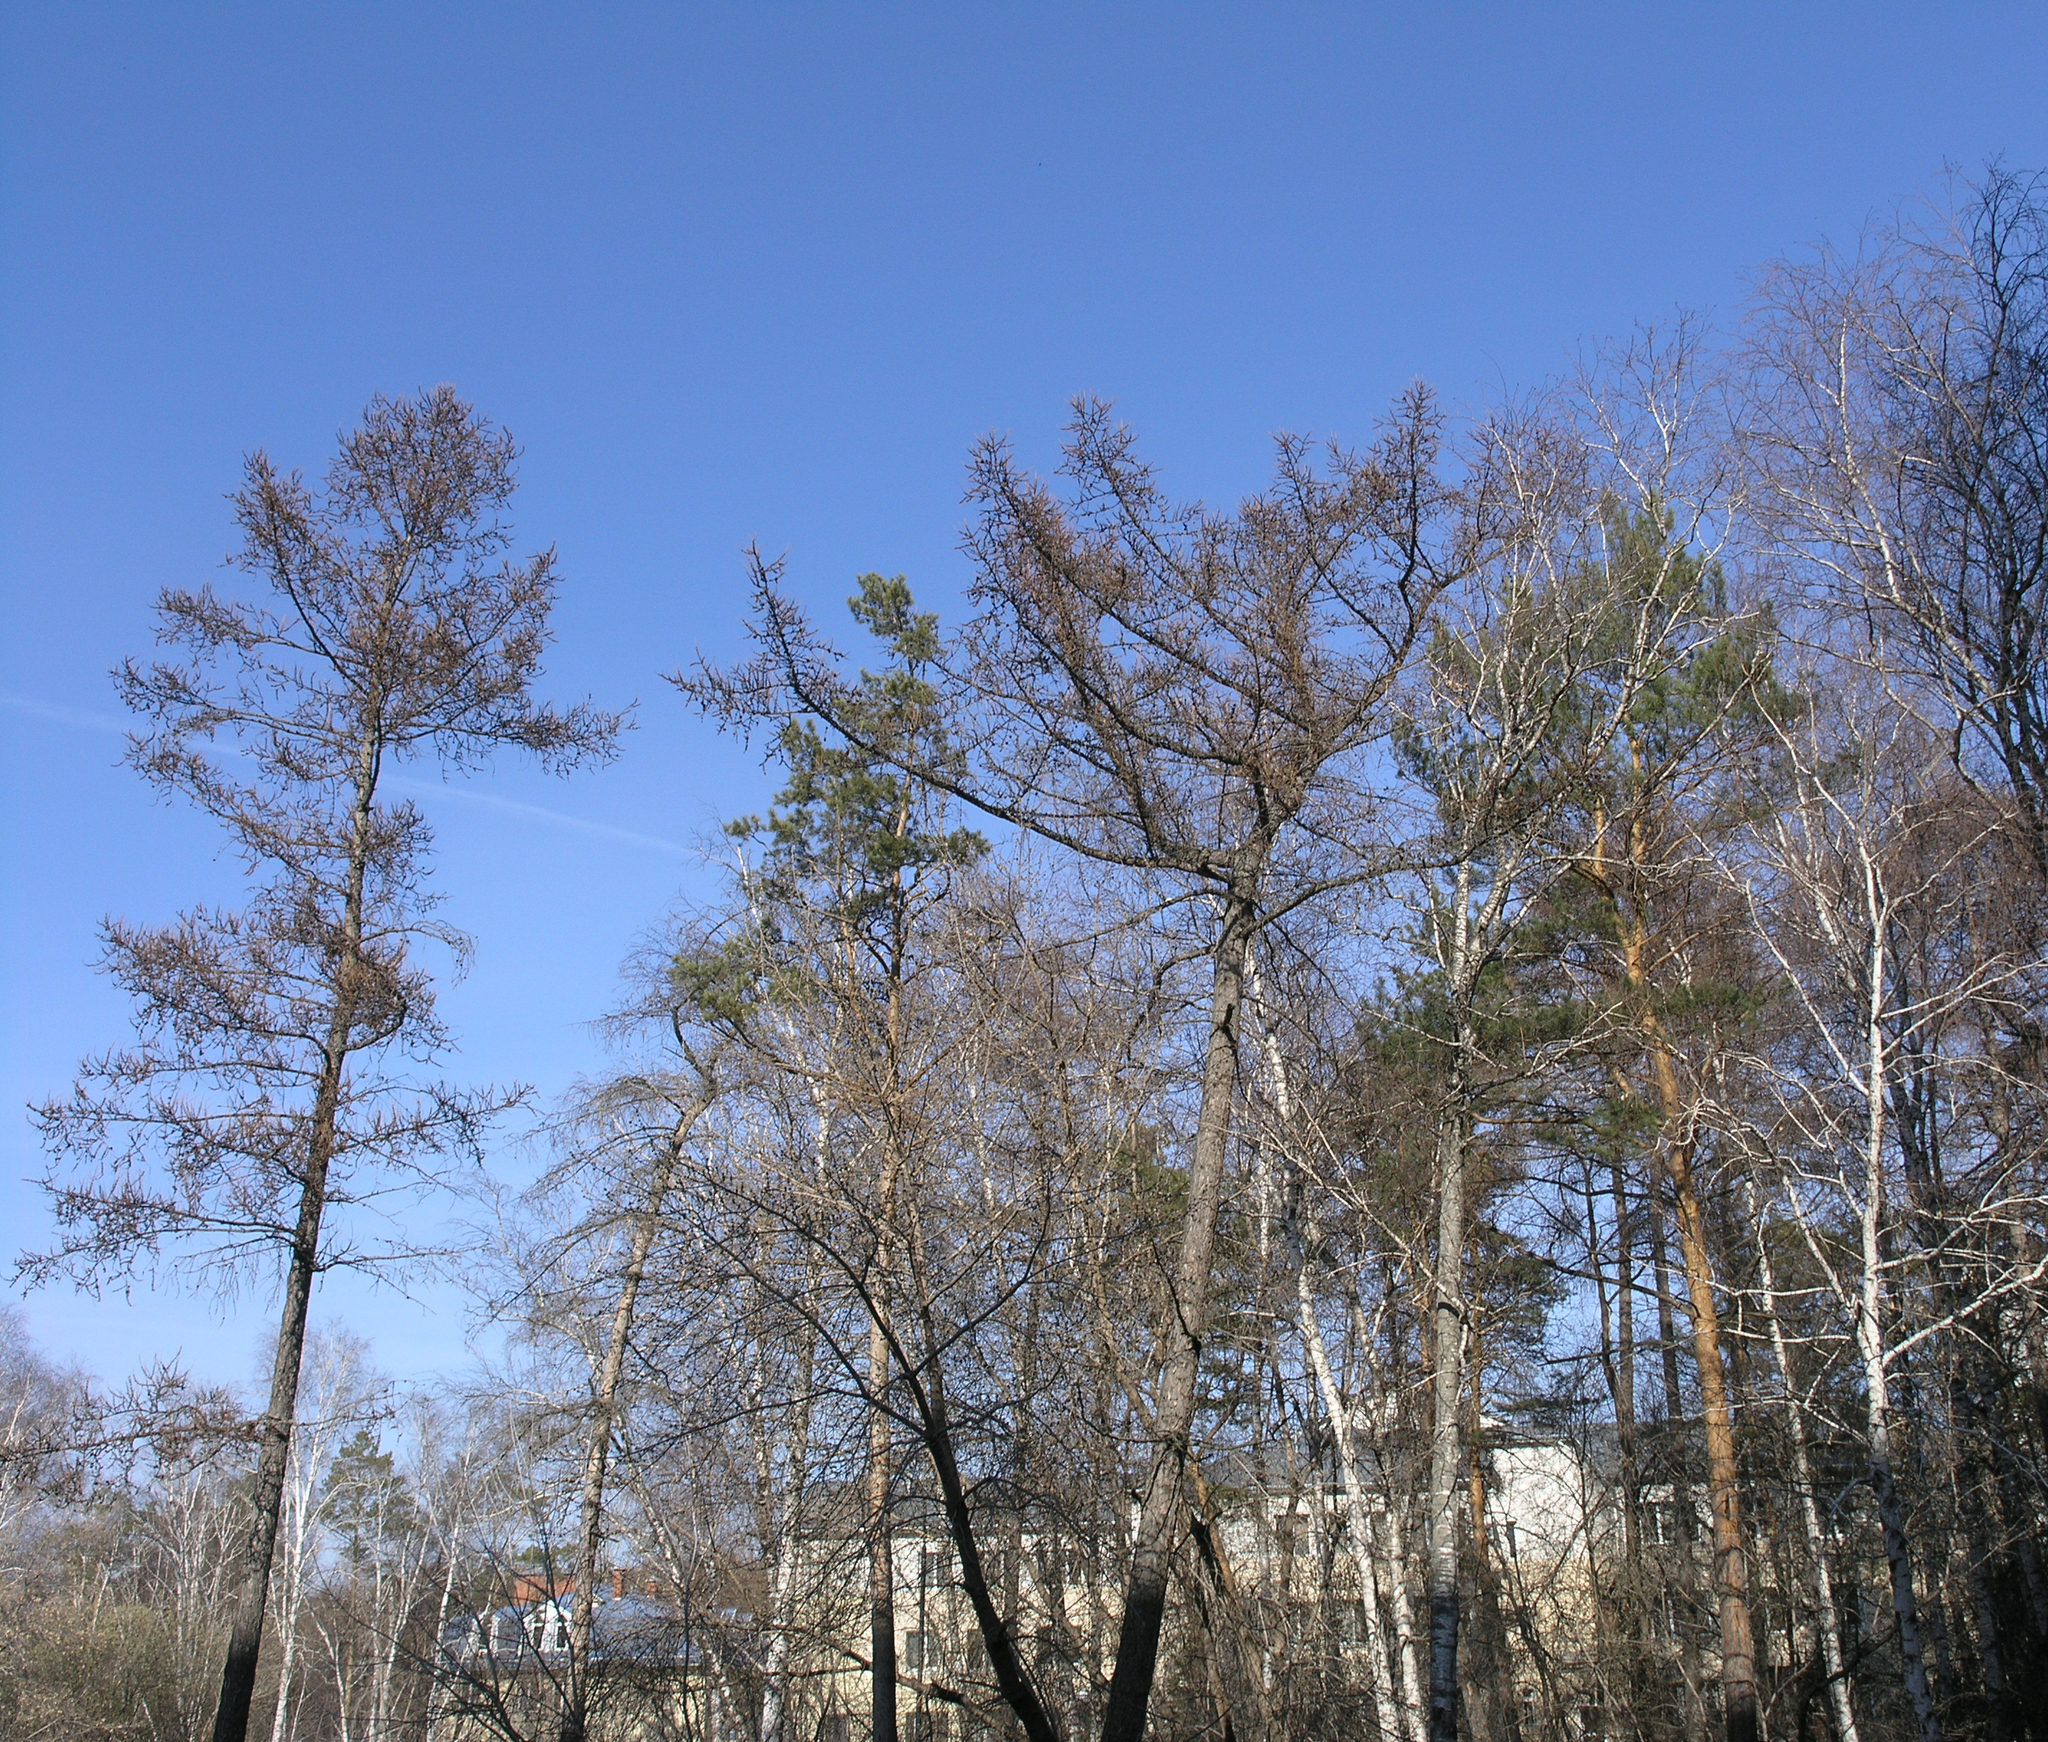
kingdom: Plantae
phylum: Tracheophyta
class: Pinopsida
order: Pinales
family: Pinaceae
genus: Larix
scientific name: Larix sibirica
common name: Siberian larch
